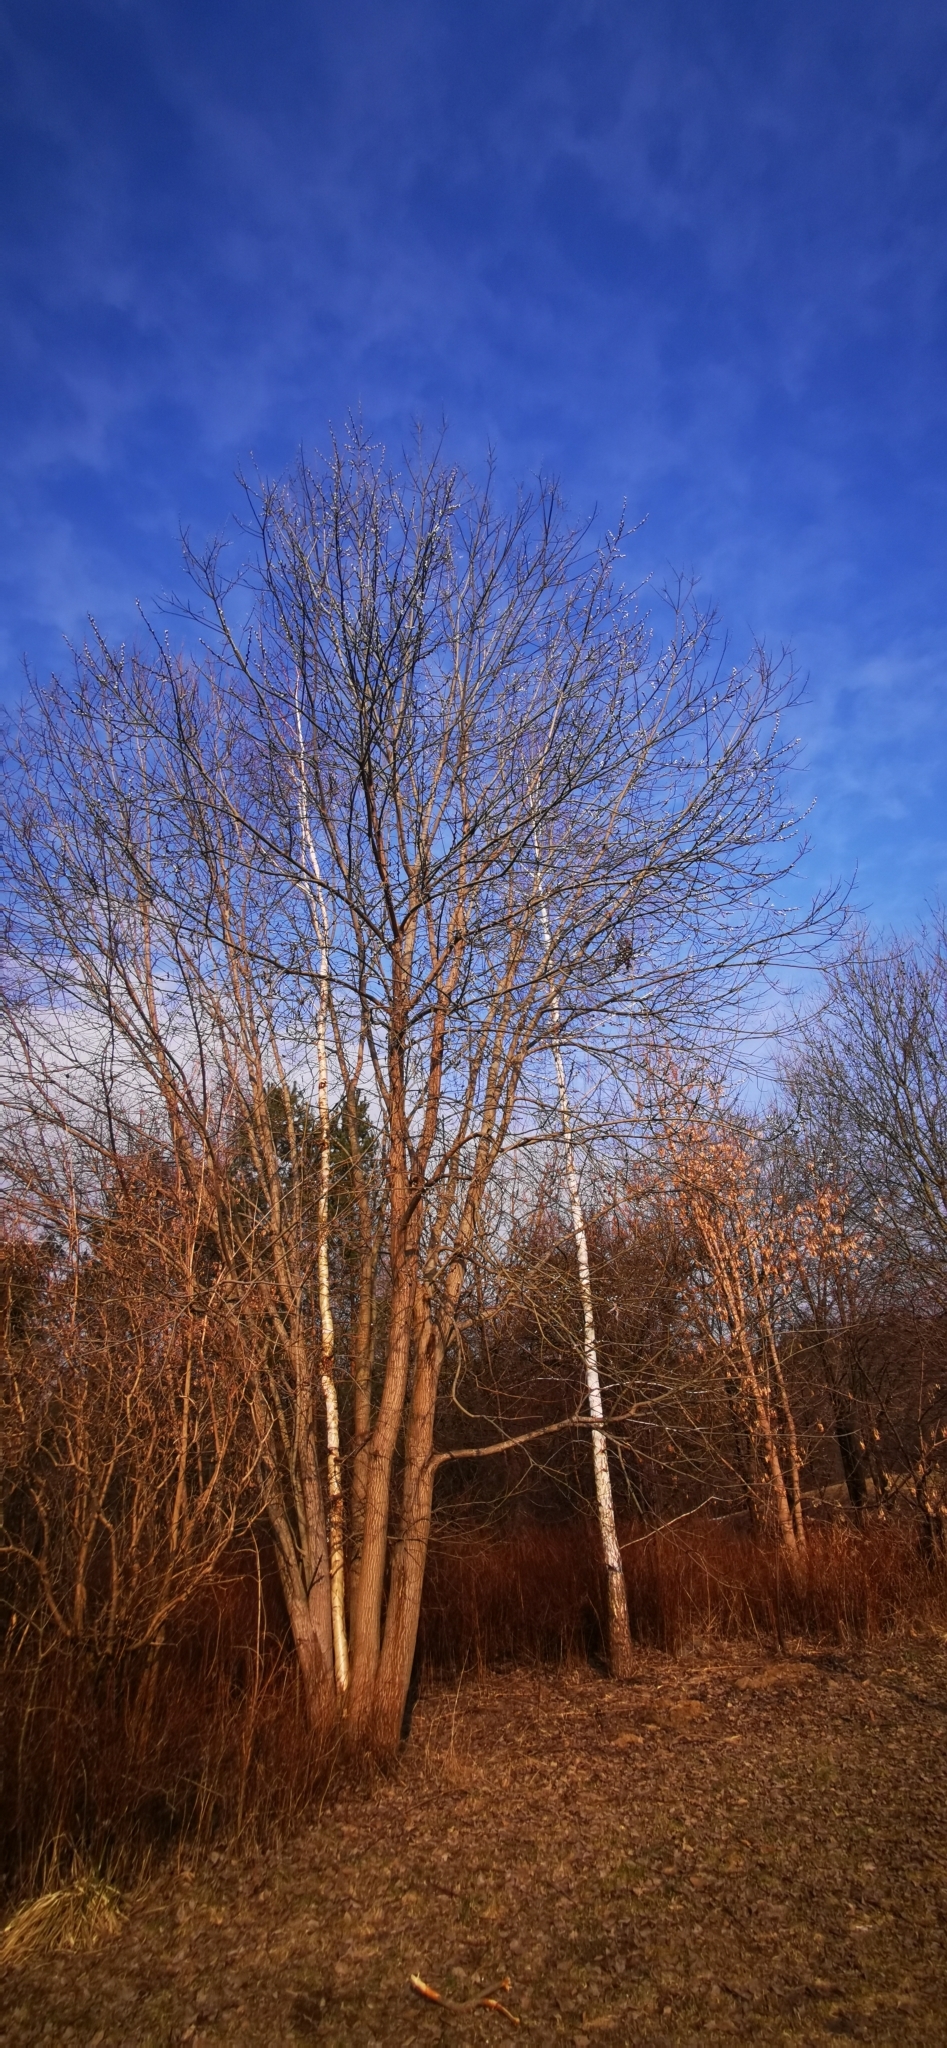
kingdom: Plantae
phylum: Tracheophyta
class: Magnoliopsida
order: Malpighiales
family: Salicaceae
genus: Salix
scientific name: Salix caprea
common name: Goat willow
